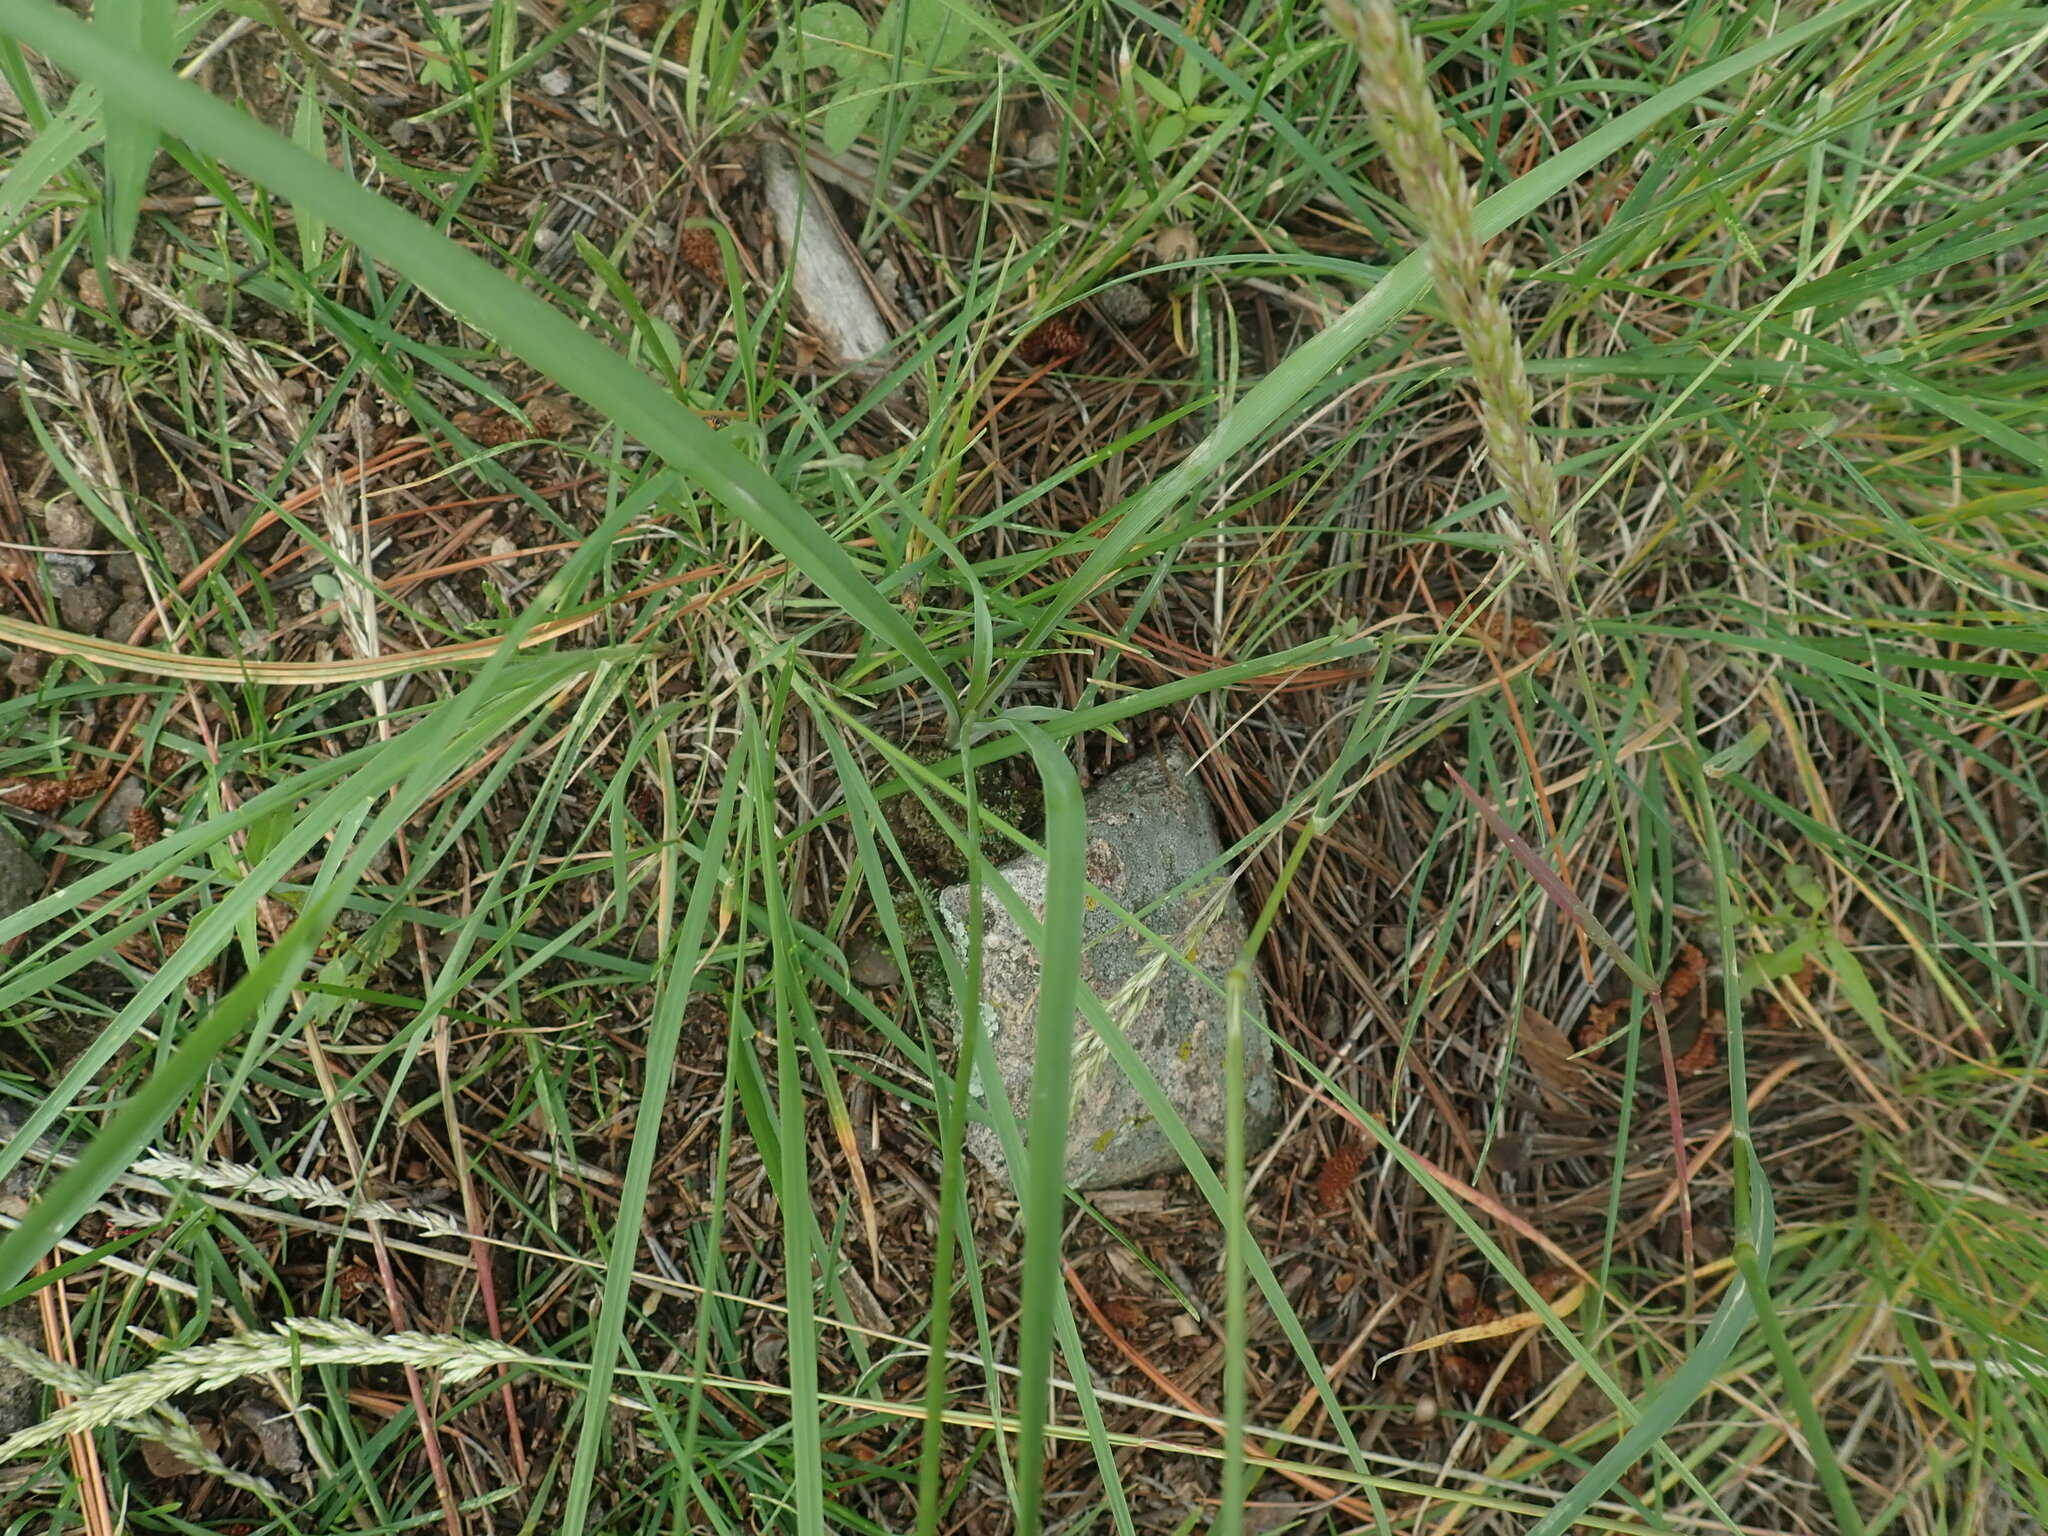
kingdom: Plantae
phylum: Tracheophyta
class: Liliopsida
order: Asparagales
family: Asparagaceae
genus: Echeandia
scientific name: Echeandia flavescens
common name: Amberlily
